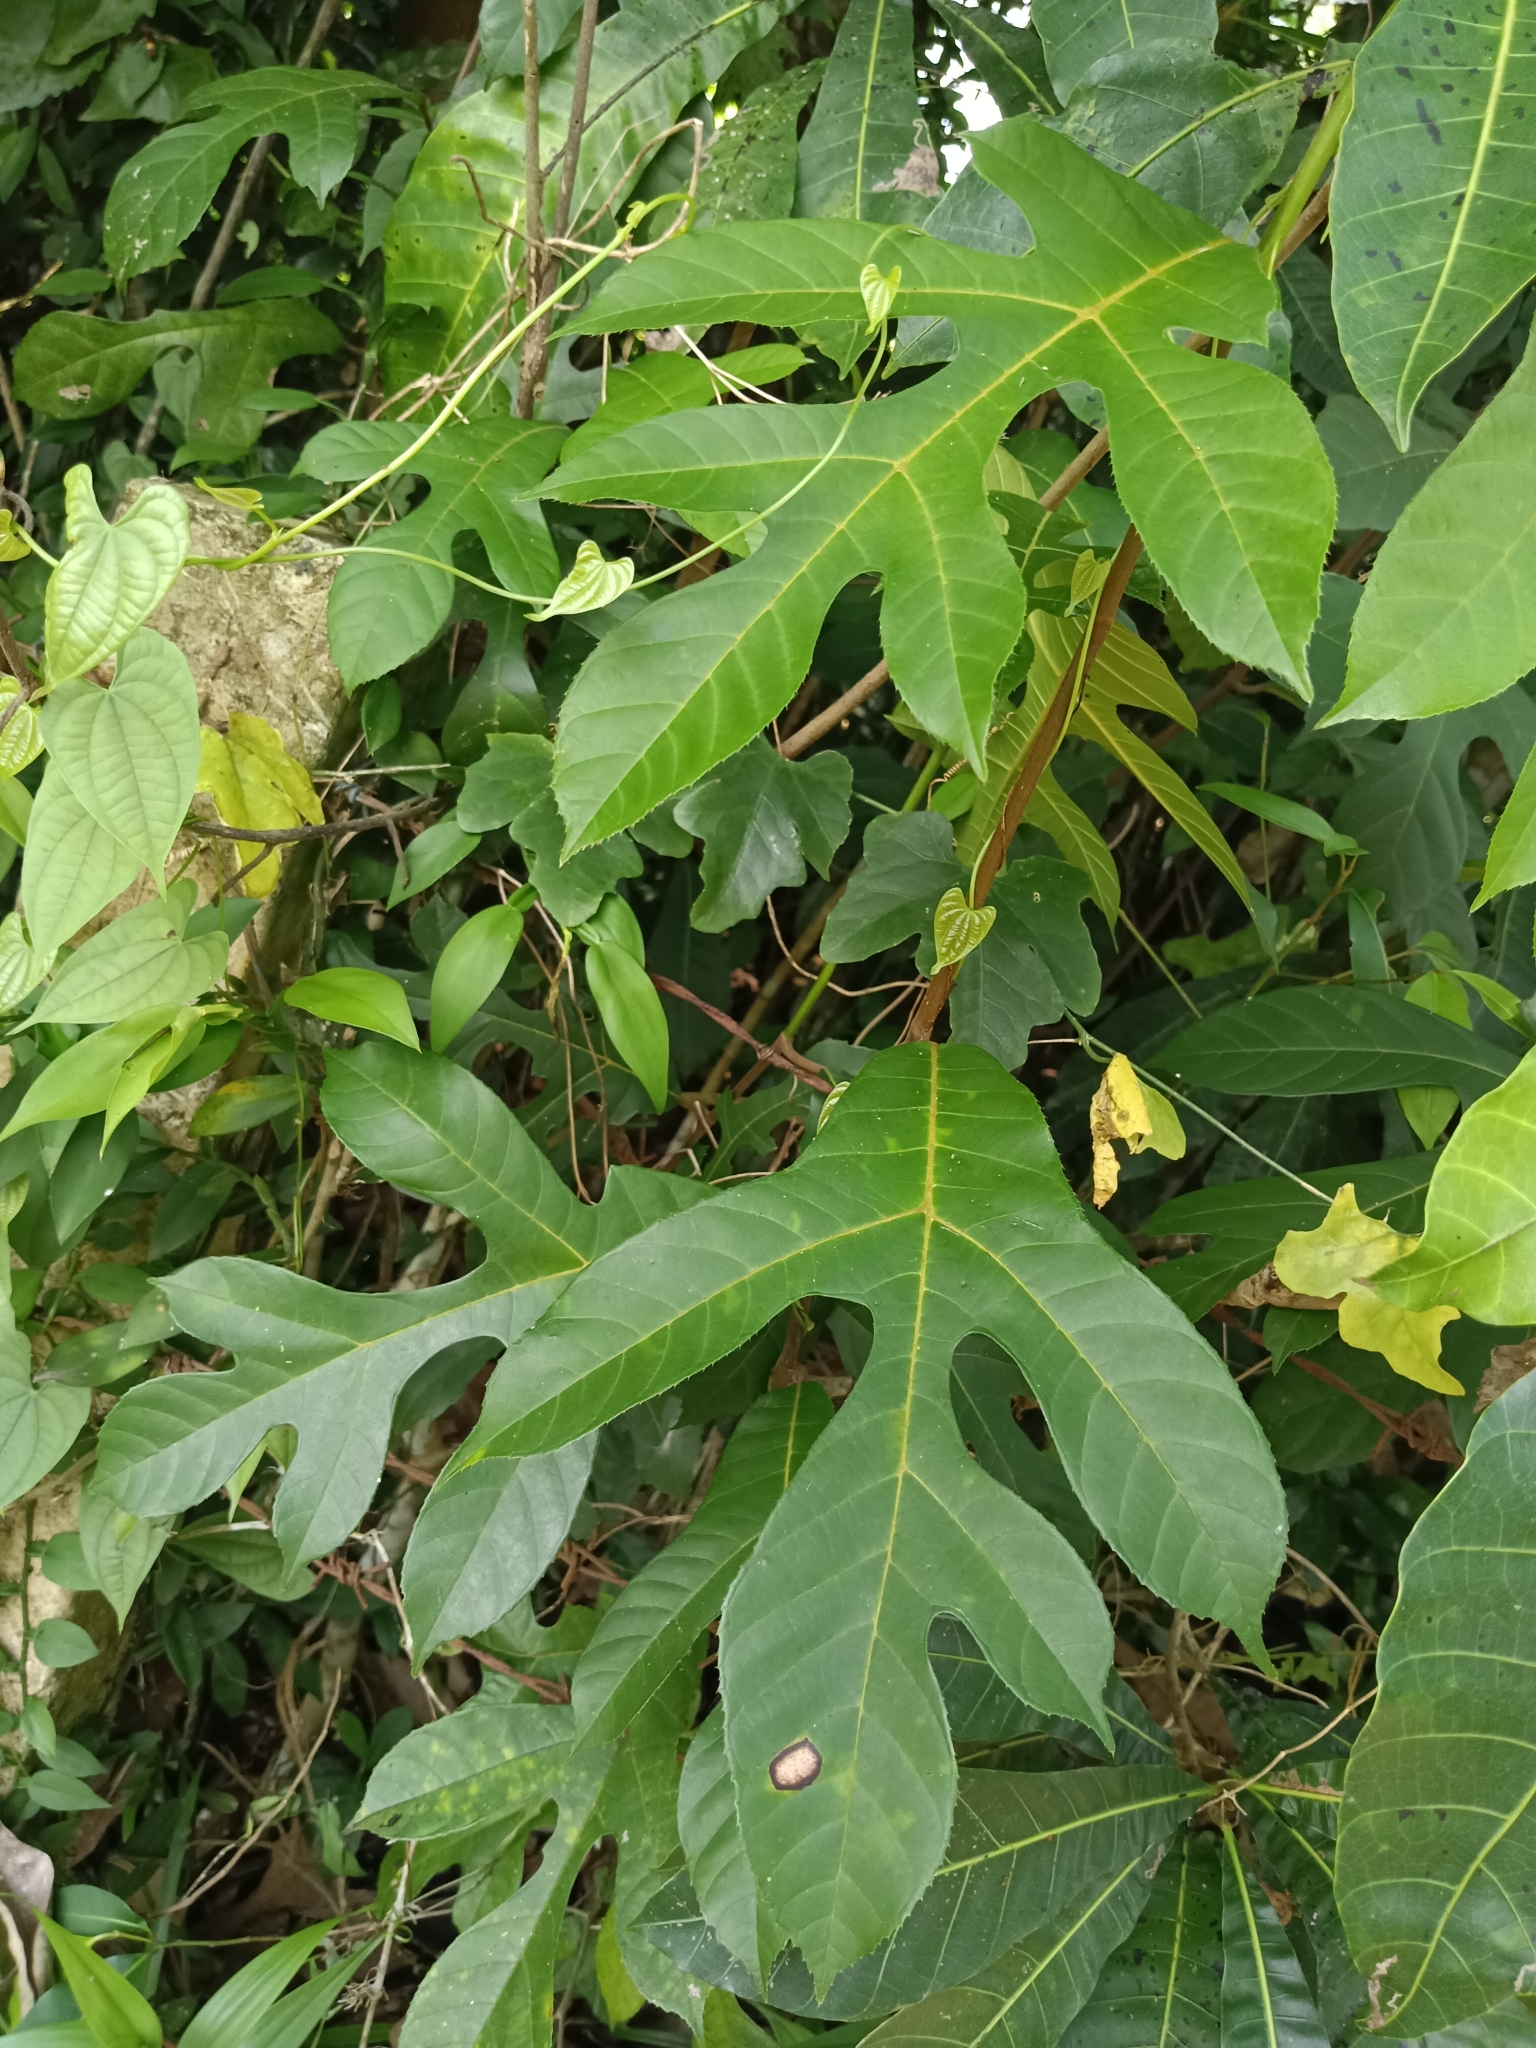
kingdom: Plantae
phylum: Tracheophyta
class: Magnoliopsida
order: Rosales
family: Moraceae
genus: Artocarpus
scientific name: Artocarpus hirsutus
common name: Hairy bread-fruit tree
